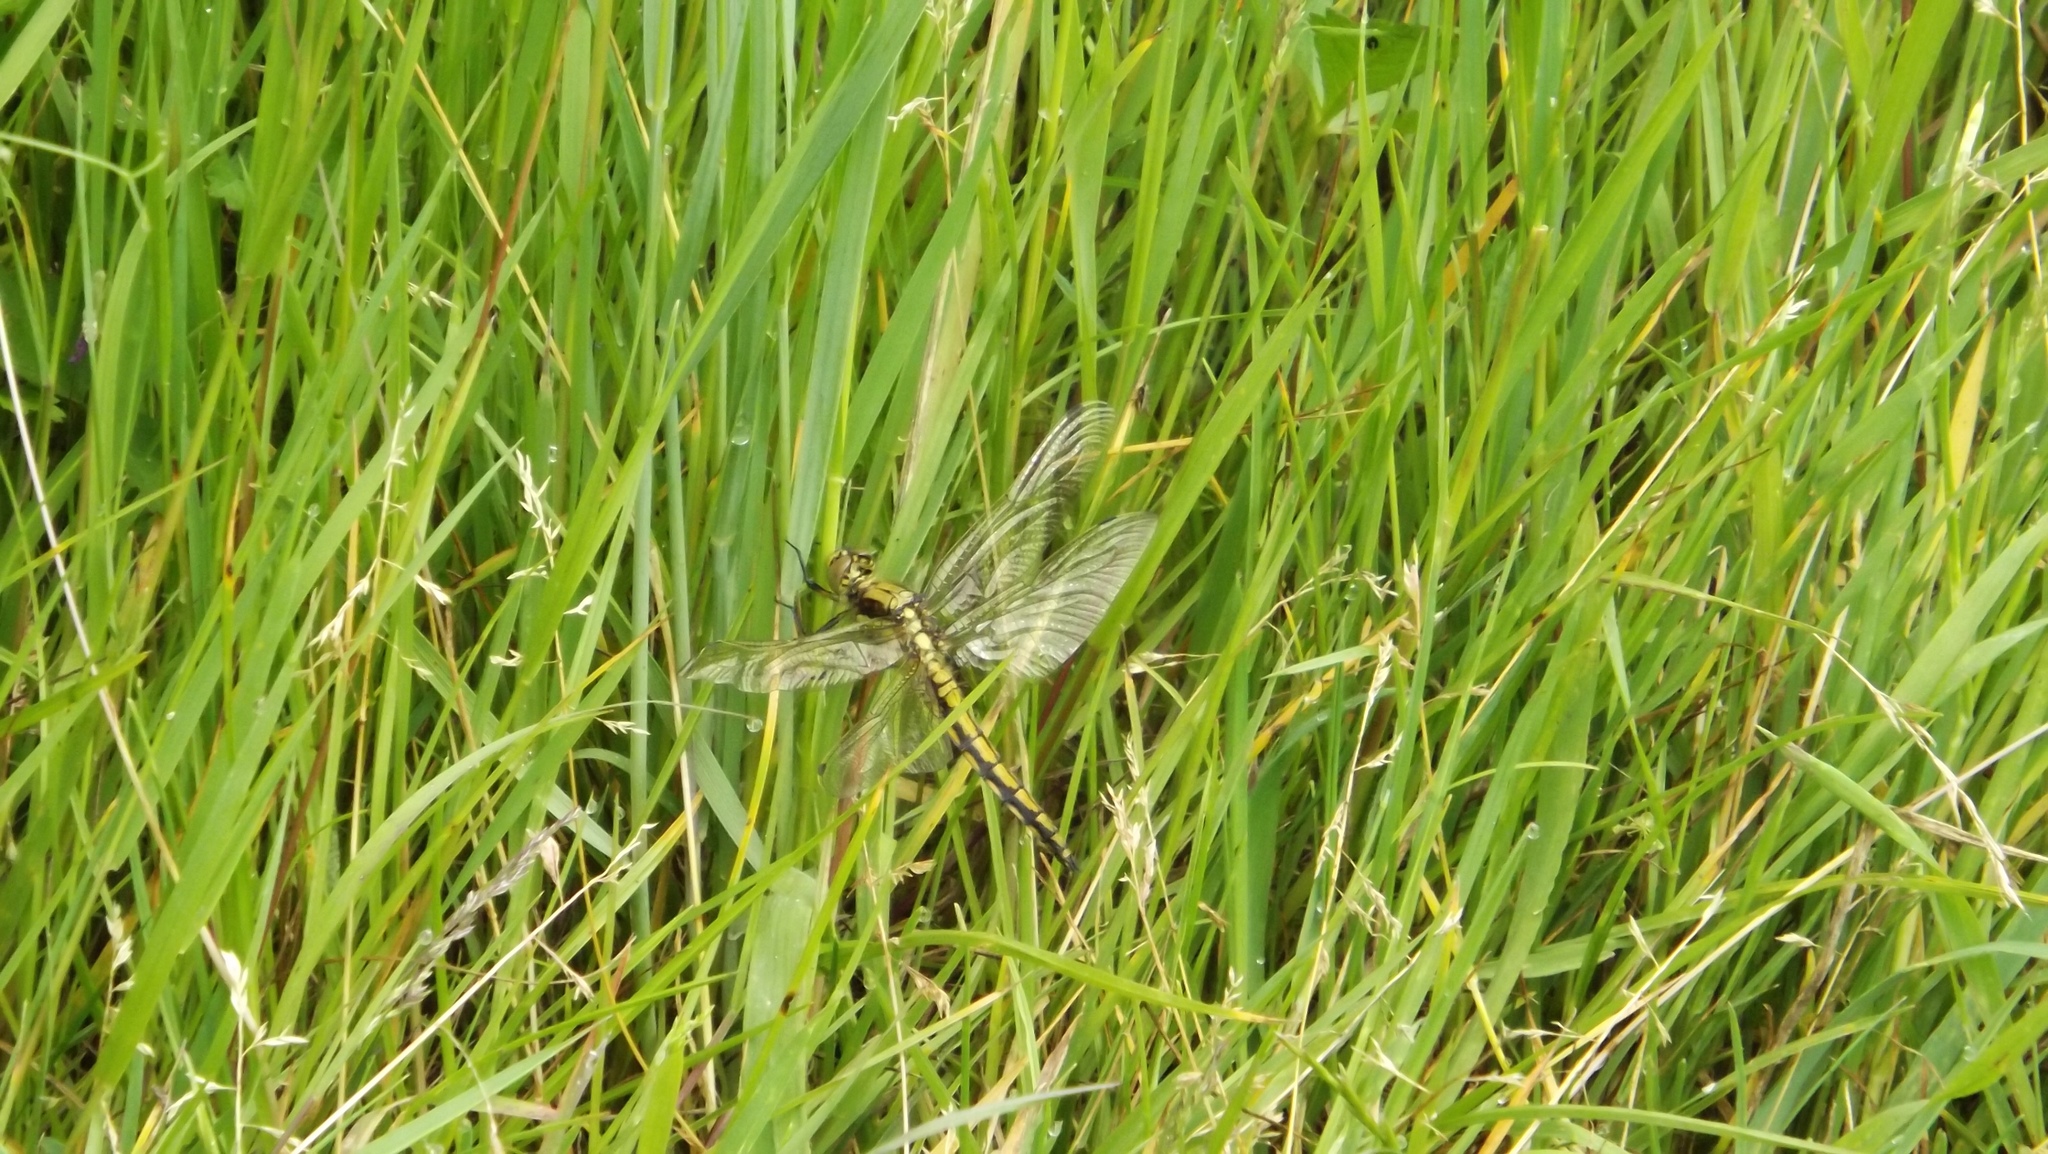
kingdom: Animalia
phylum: Arthropoda
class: Insecta
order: Odonata
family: Libellulidae
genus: Orthetrum
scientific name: Orthetrum cancellatum
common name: Black-tailed skimmer
